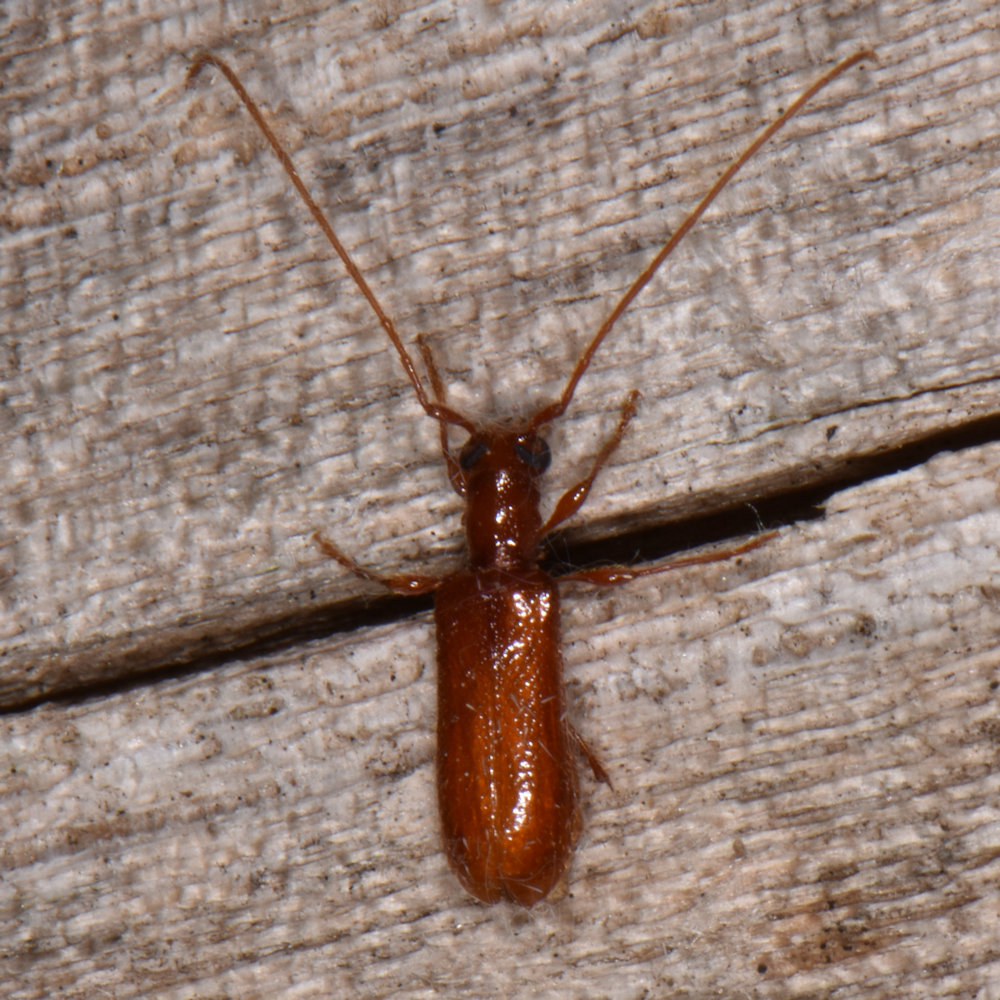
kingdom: Animalia
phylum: Arthropoda
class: Insecta
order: Coleoptera
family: Cerambycidae
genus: Obrium
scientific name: Obrium rufulum
